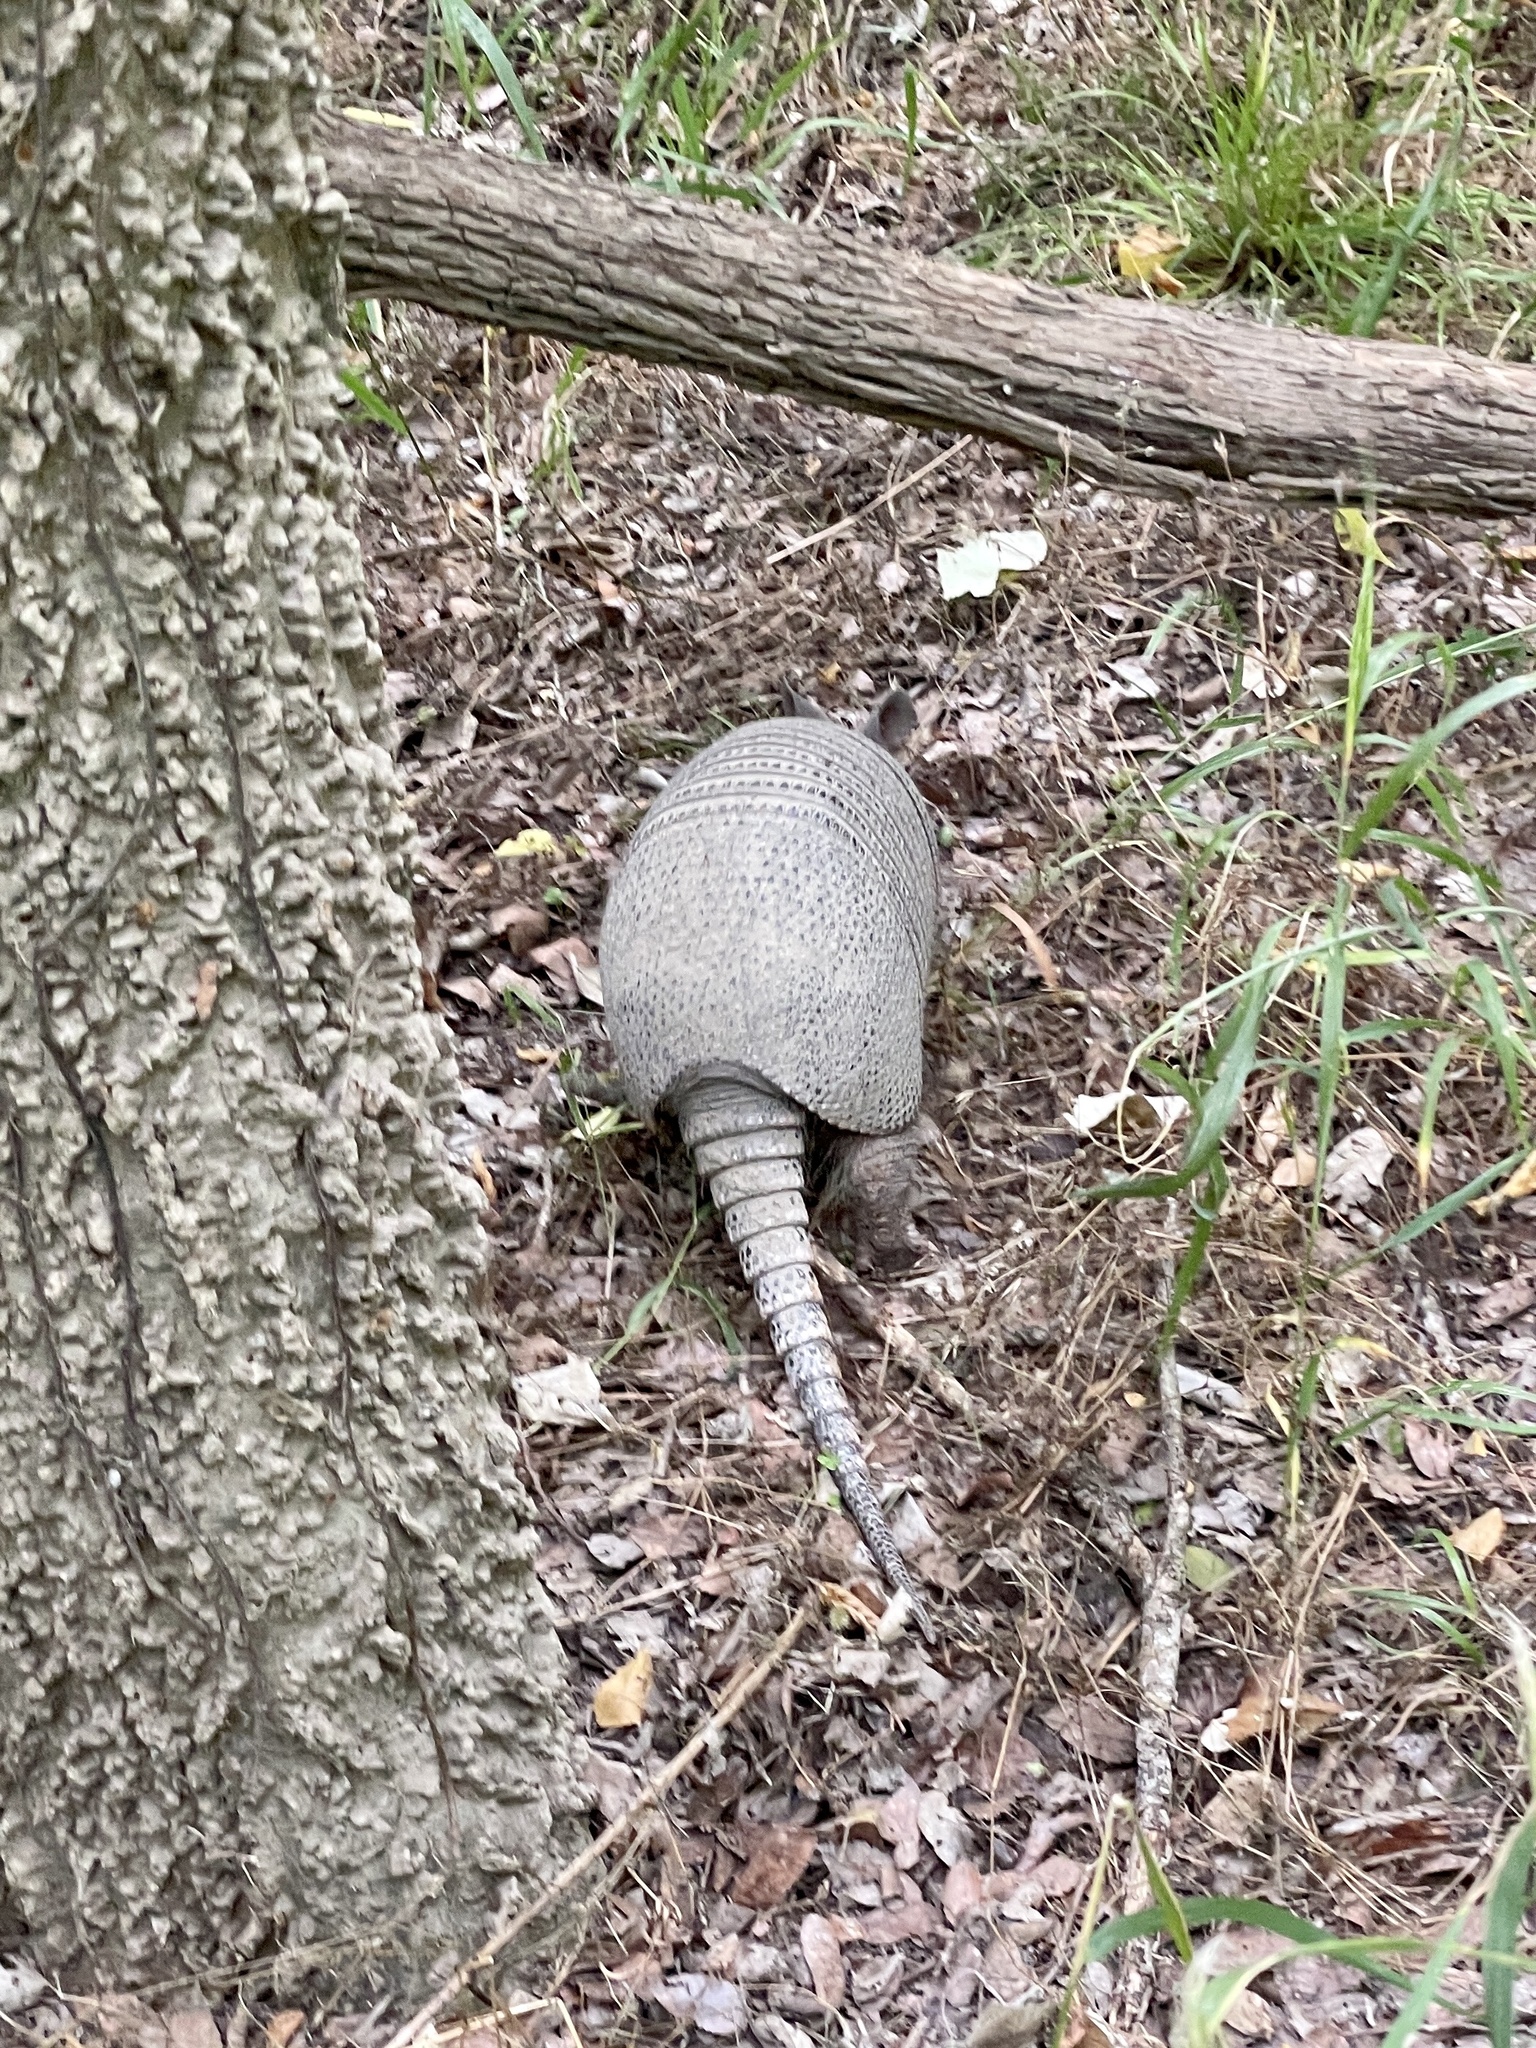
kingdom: Animalia
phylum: Chordata
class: Mammalia
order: Cingulata
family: Dasypodidae
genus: Dasypus
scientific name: Dasypus novemcinctus
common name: Nine-banded armadillo
